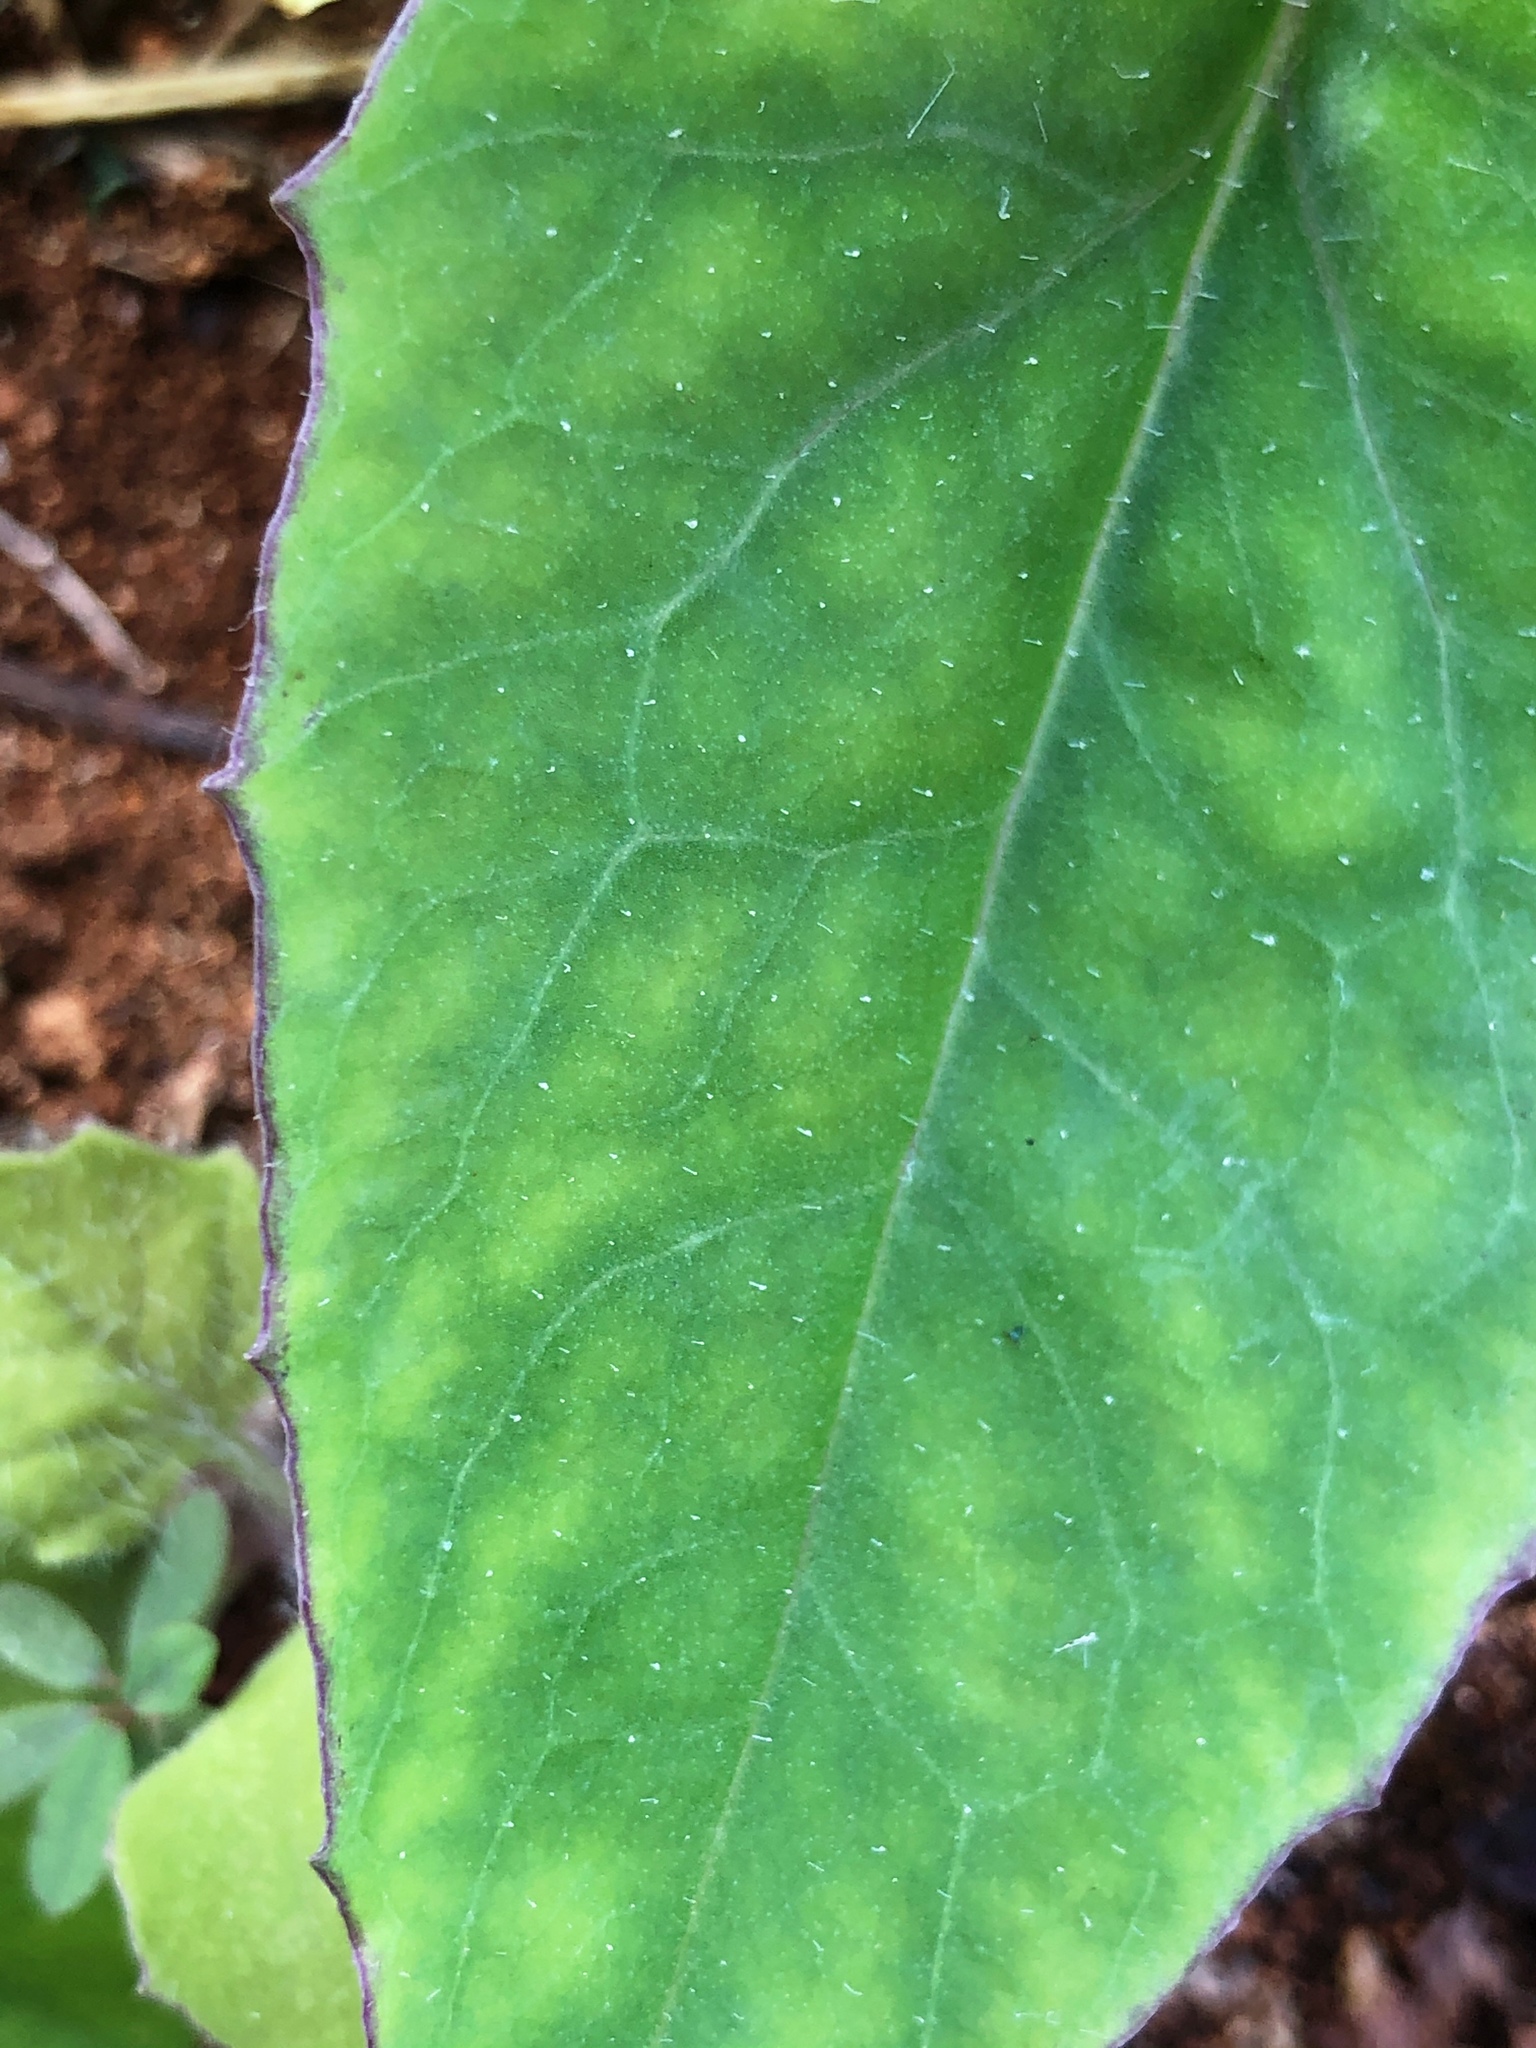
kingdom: Plantae
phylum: Tracheophyta
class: Magnoliopsida
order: Asterales
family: Asteraceae
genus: Emilia
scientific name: Emilia fosbergii
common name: Florida tasselflower
